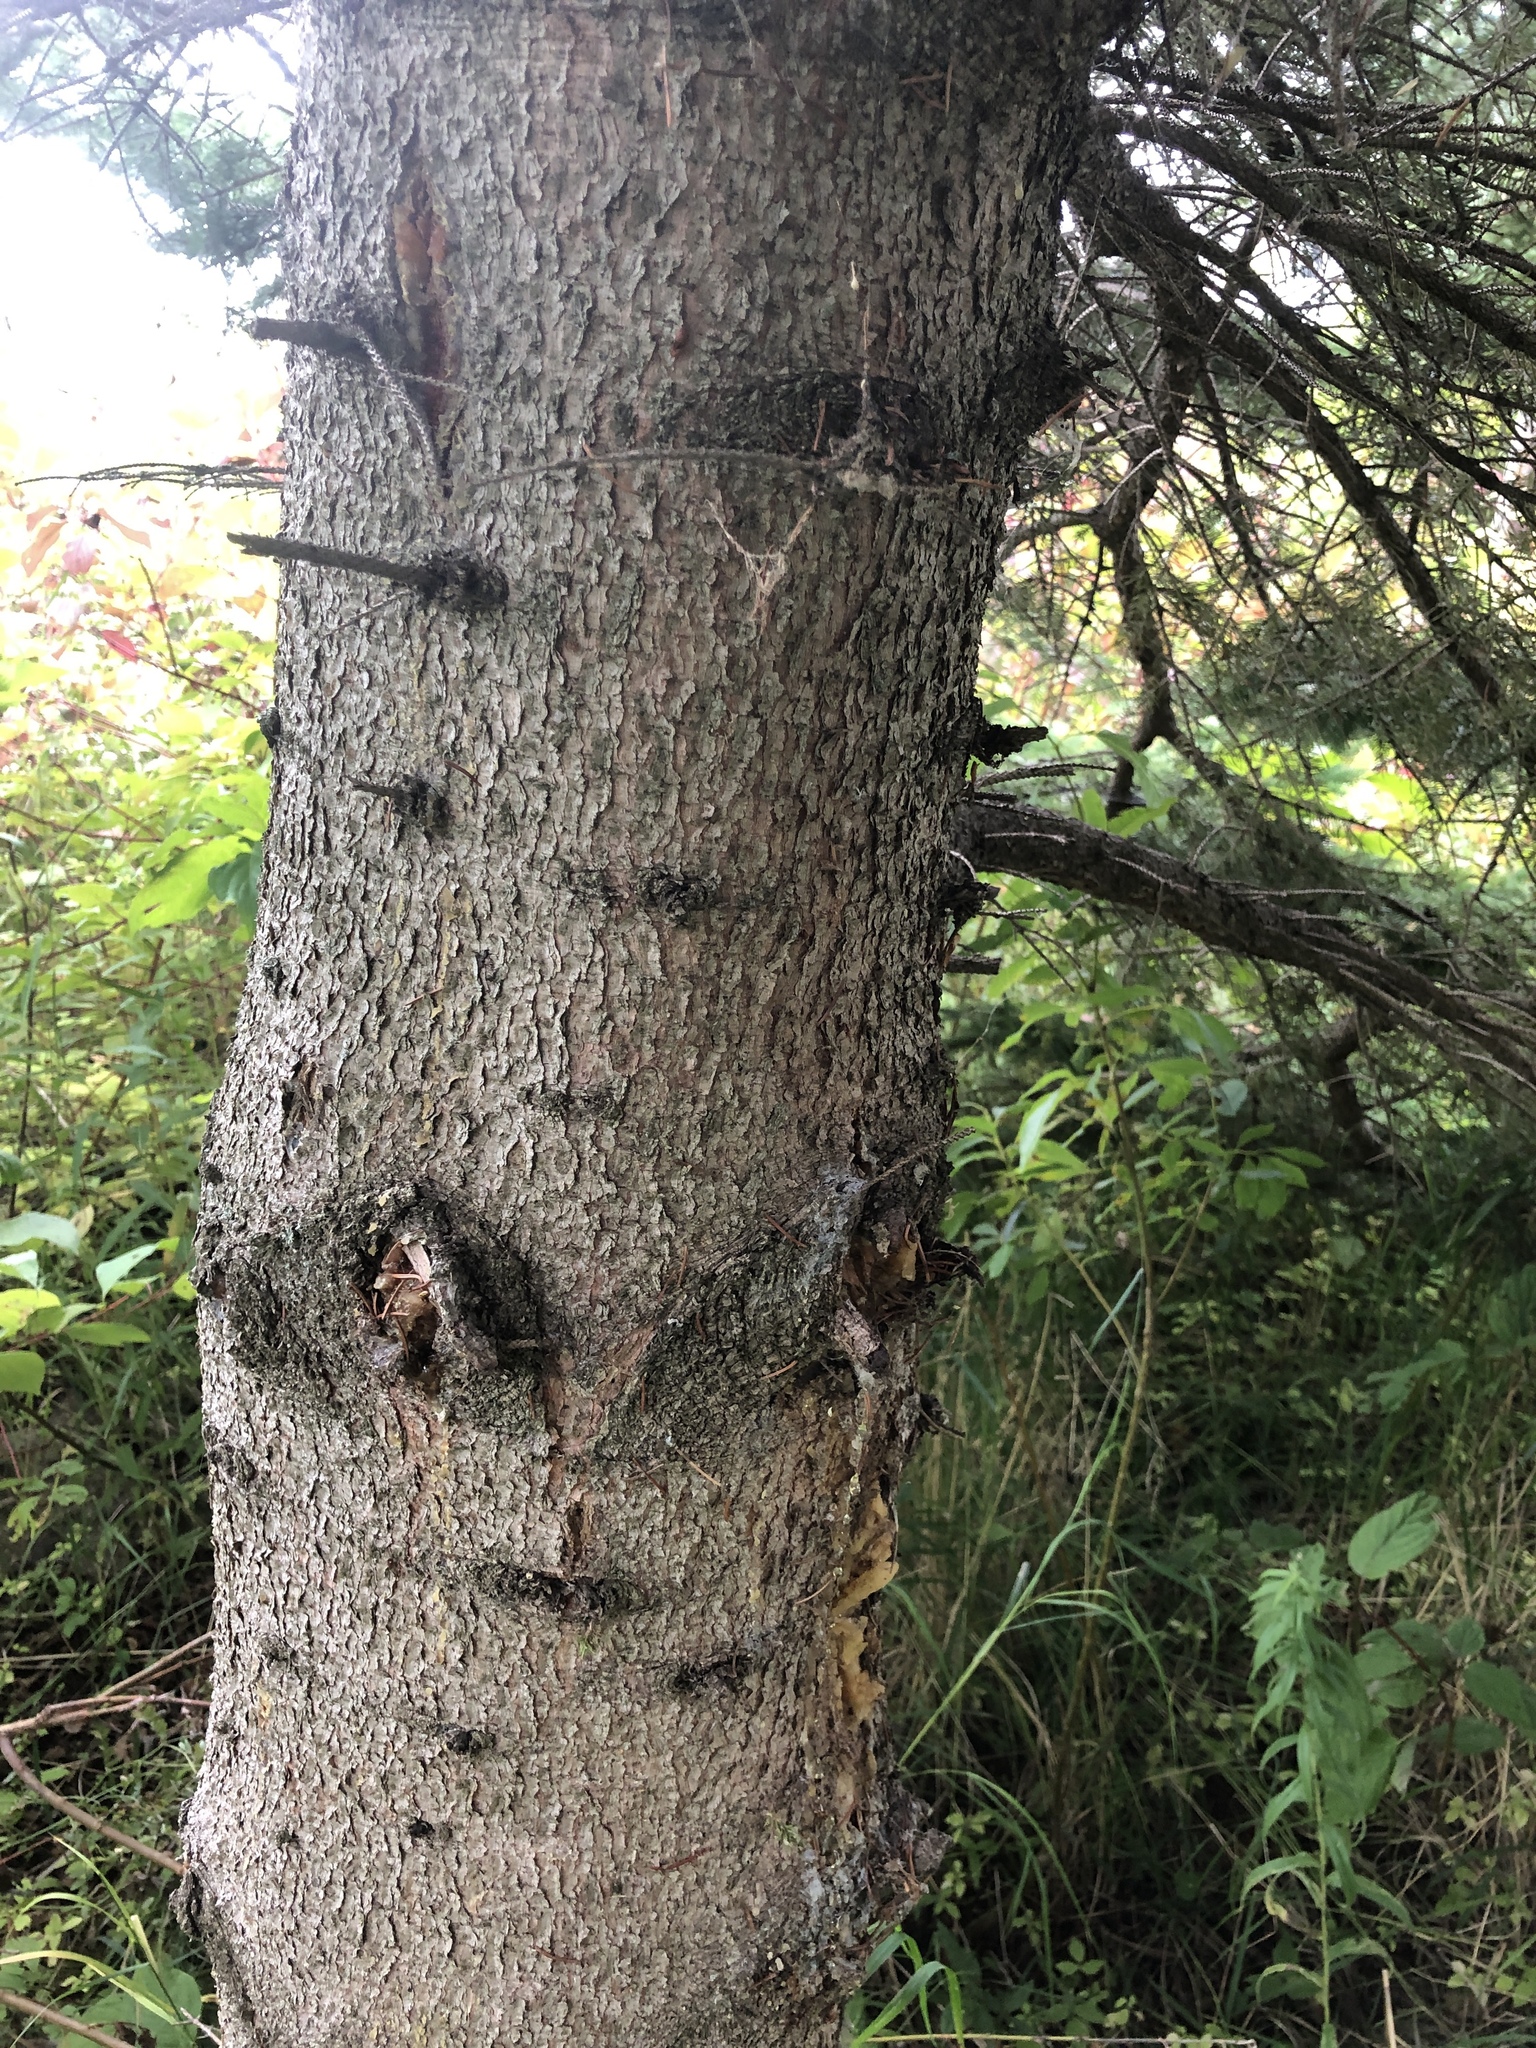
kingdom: Plantae
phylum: Tracheophyta
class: Pinopsida
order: Pinales
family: Pinaceae
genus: Picea
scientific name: Picea glauca
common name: White spruce
